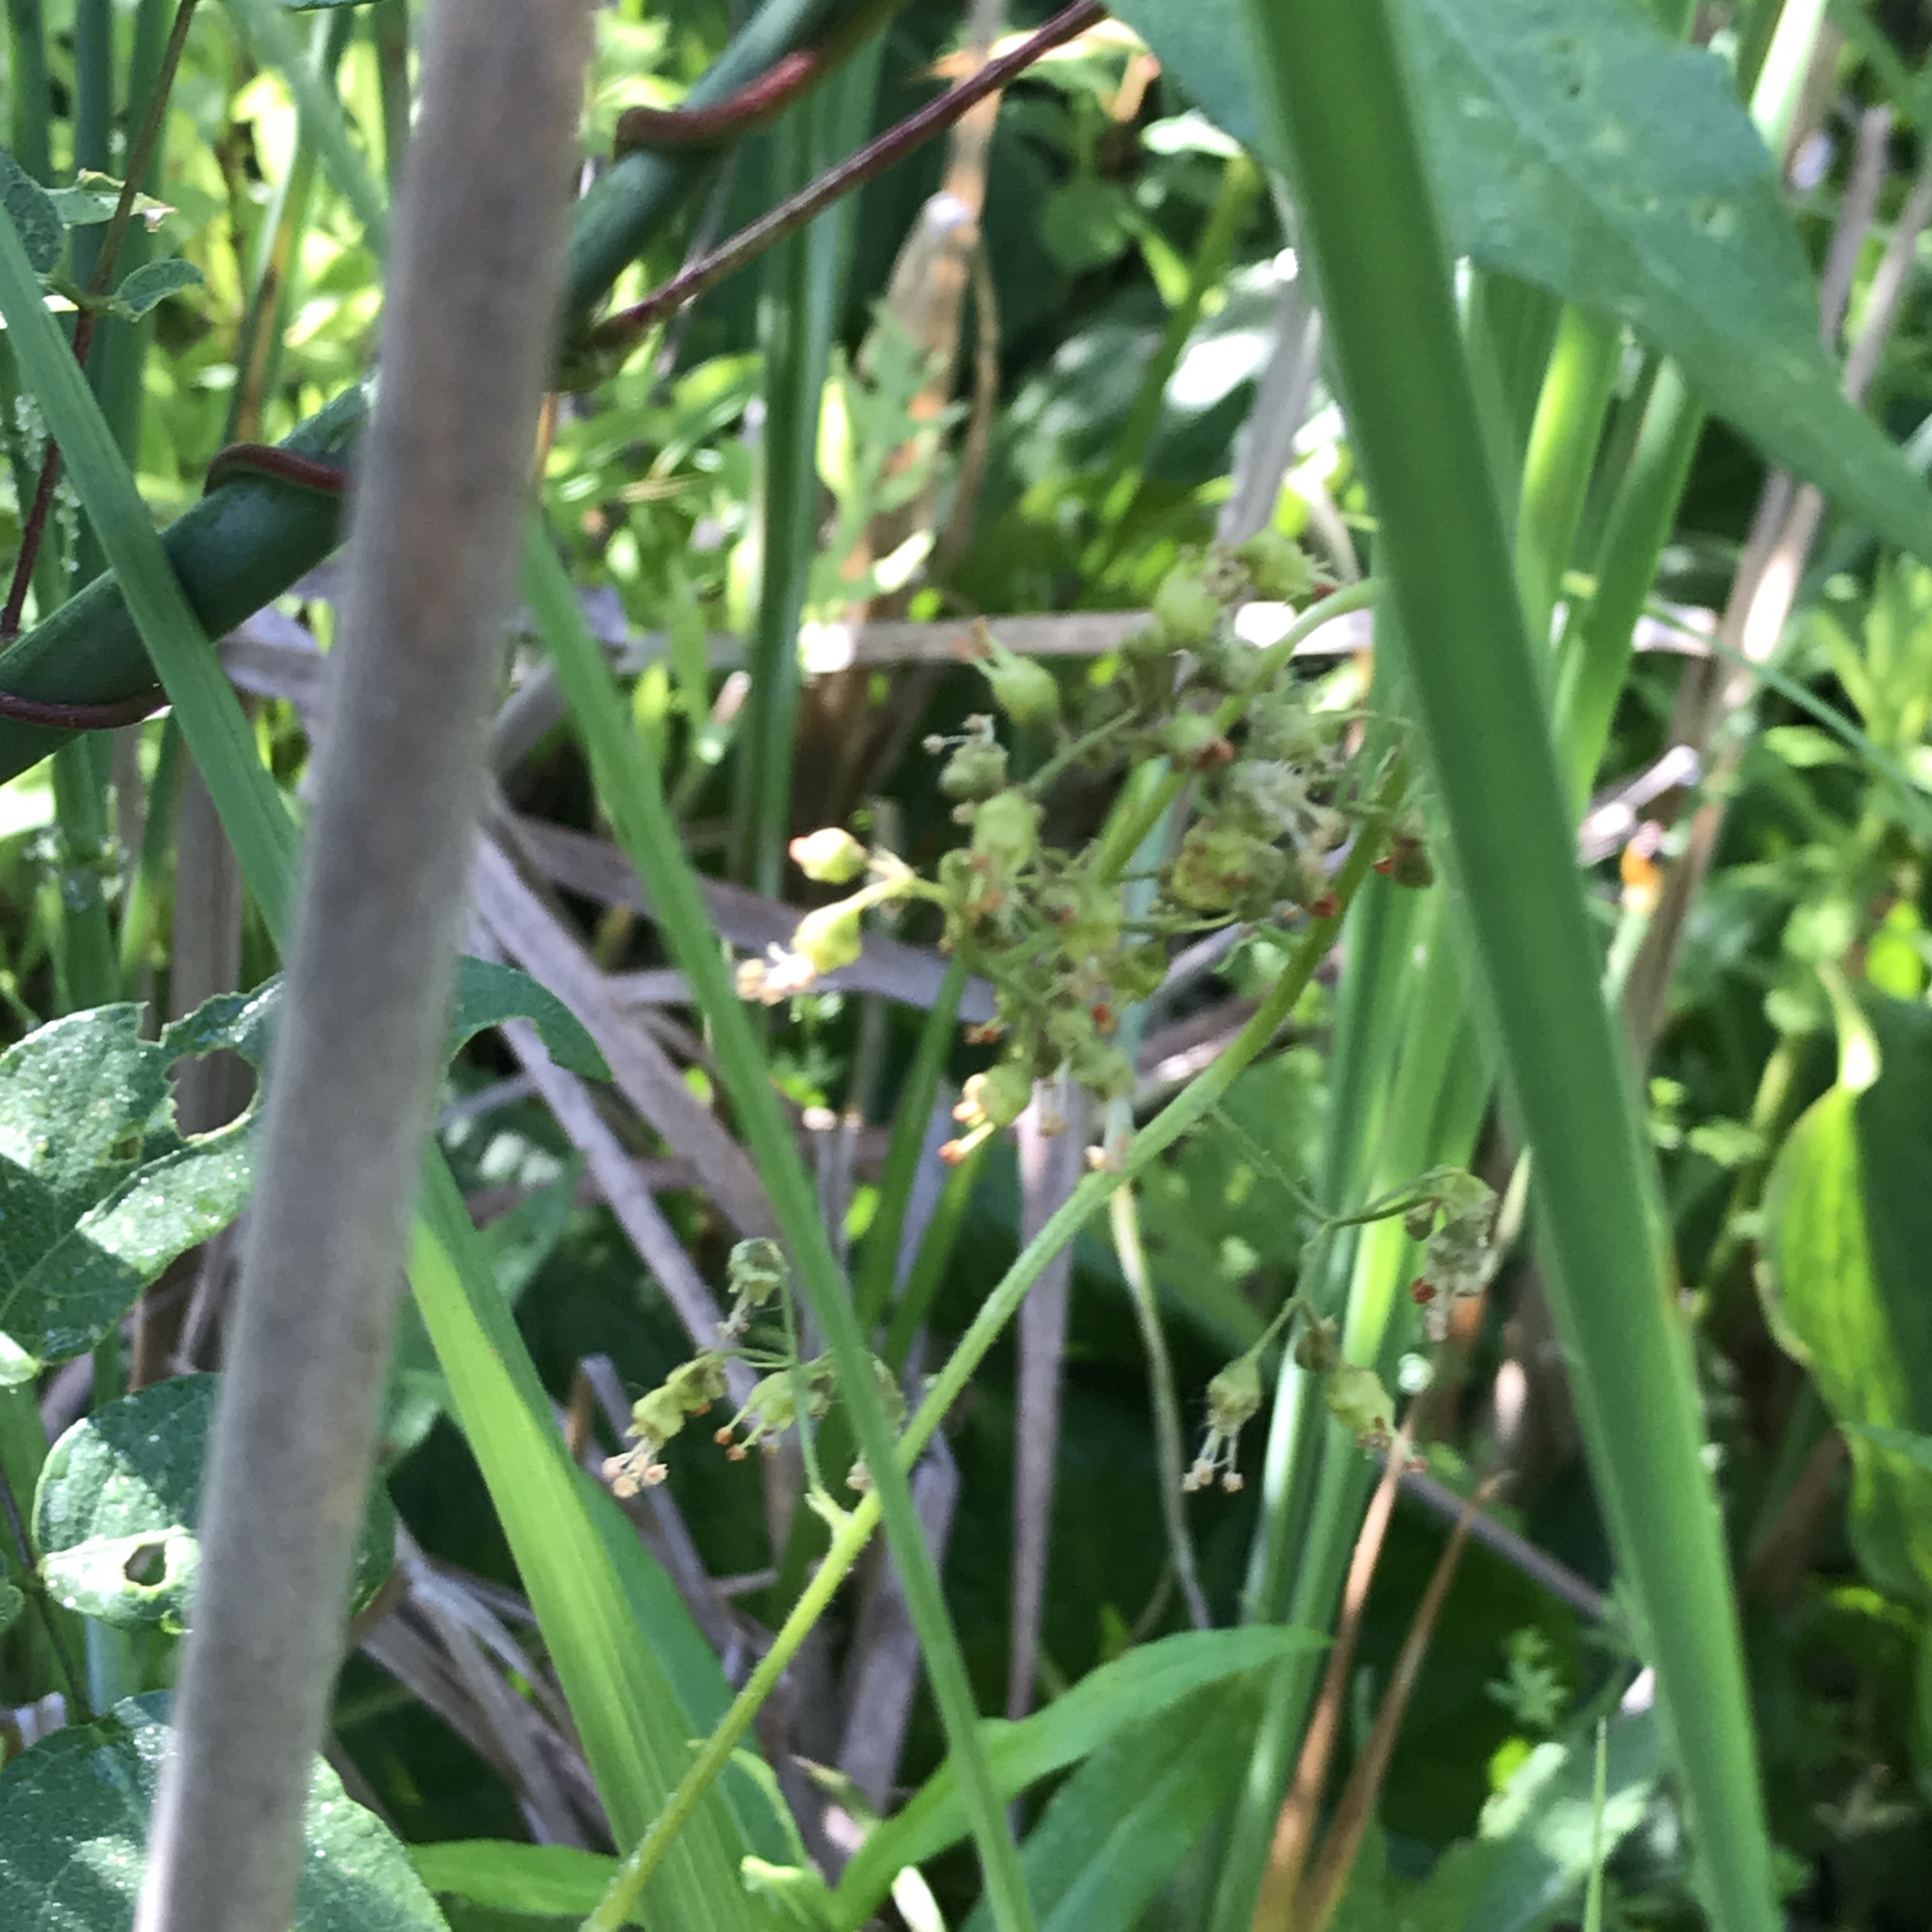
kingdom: Plantae
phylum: Tracheophyta
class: Magnoliopsida
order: Saxifragales
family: Saxifragaceae
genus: Micranthes
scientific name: Micranthes pensylvanica
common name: Marsh saxifrage
